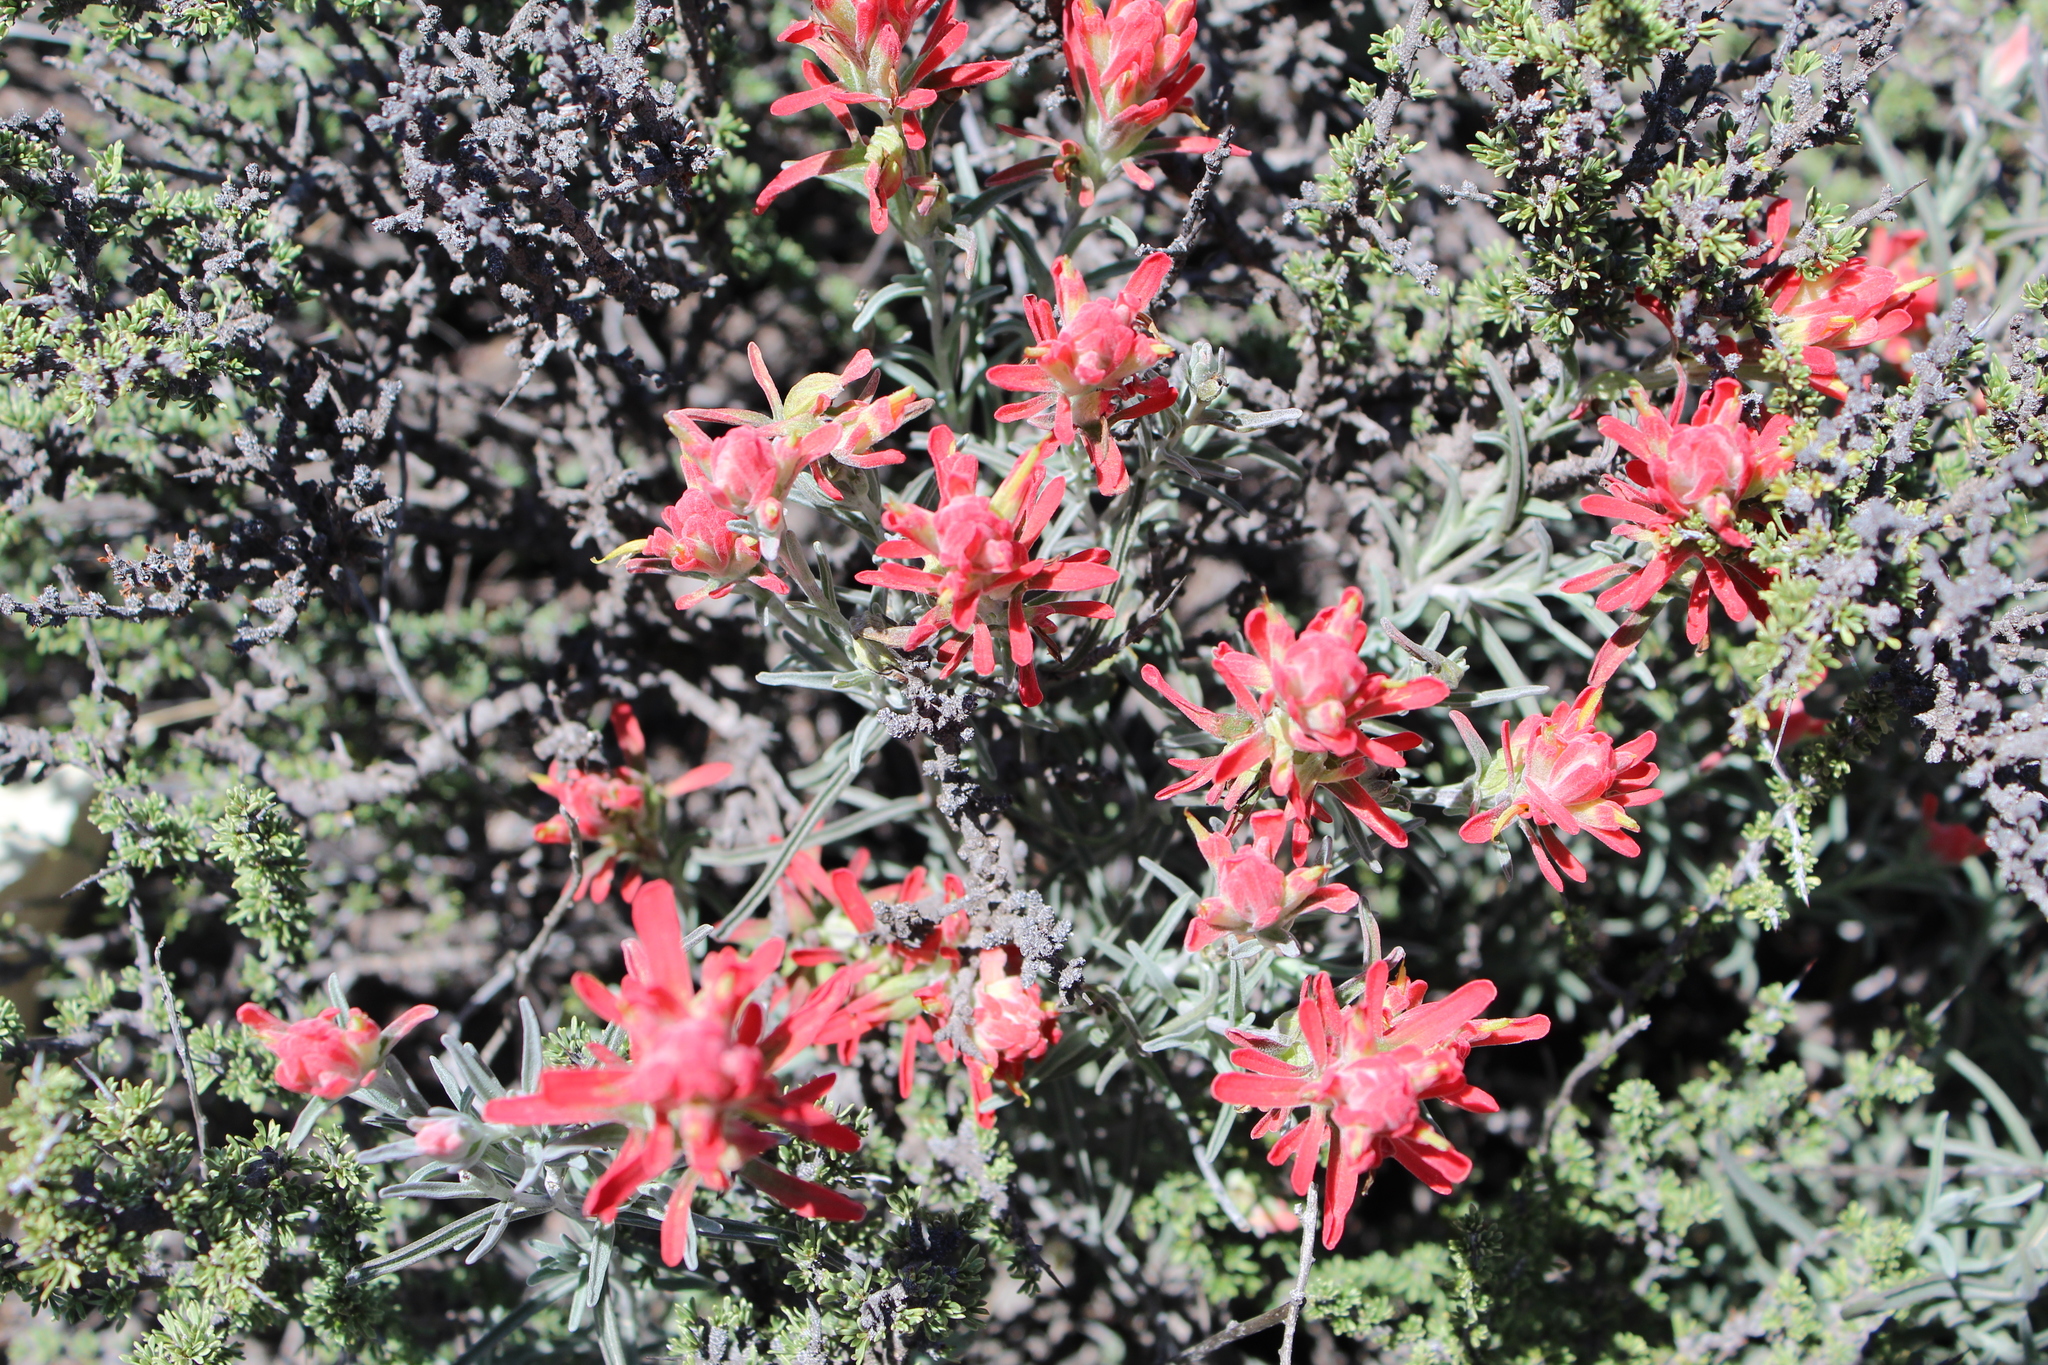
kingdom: Plantae
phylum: Tracheophyta
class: Magnoliopsida
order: Lamiales
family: Orobanchaceae
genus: Castilleja
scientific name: Castilleja lanata
